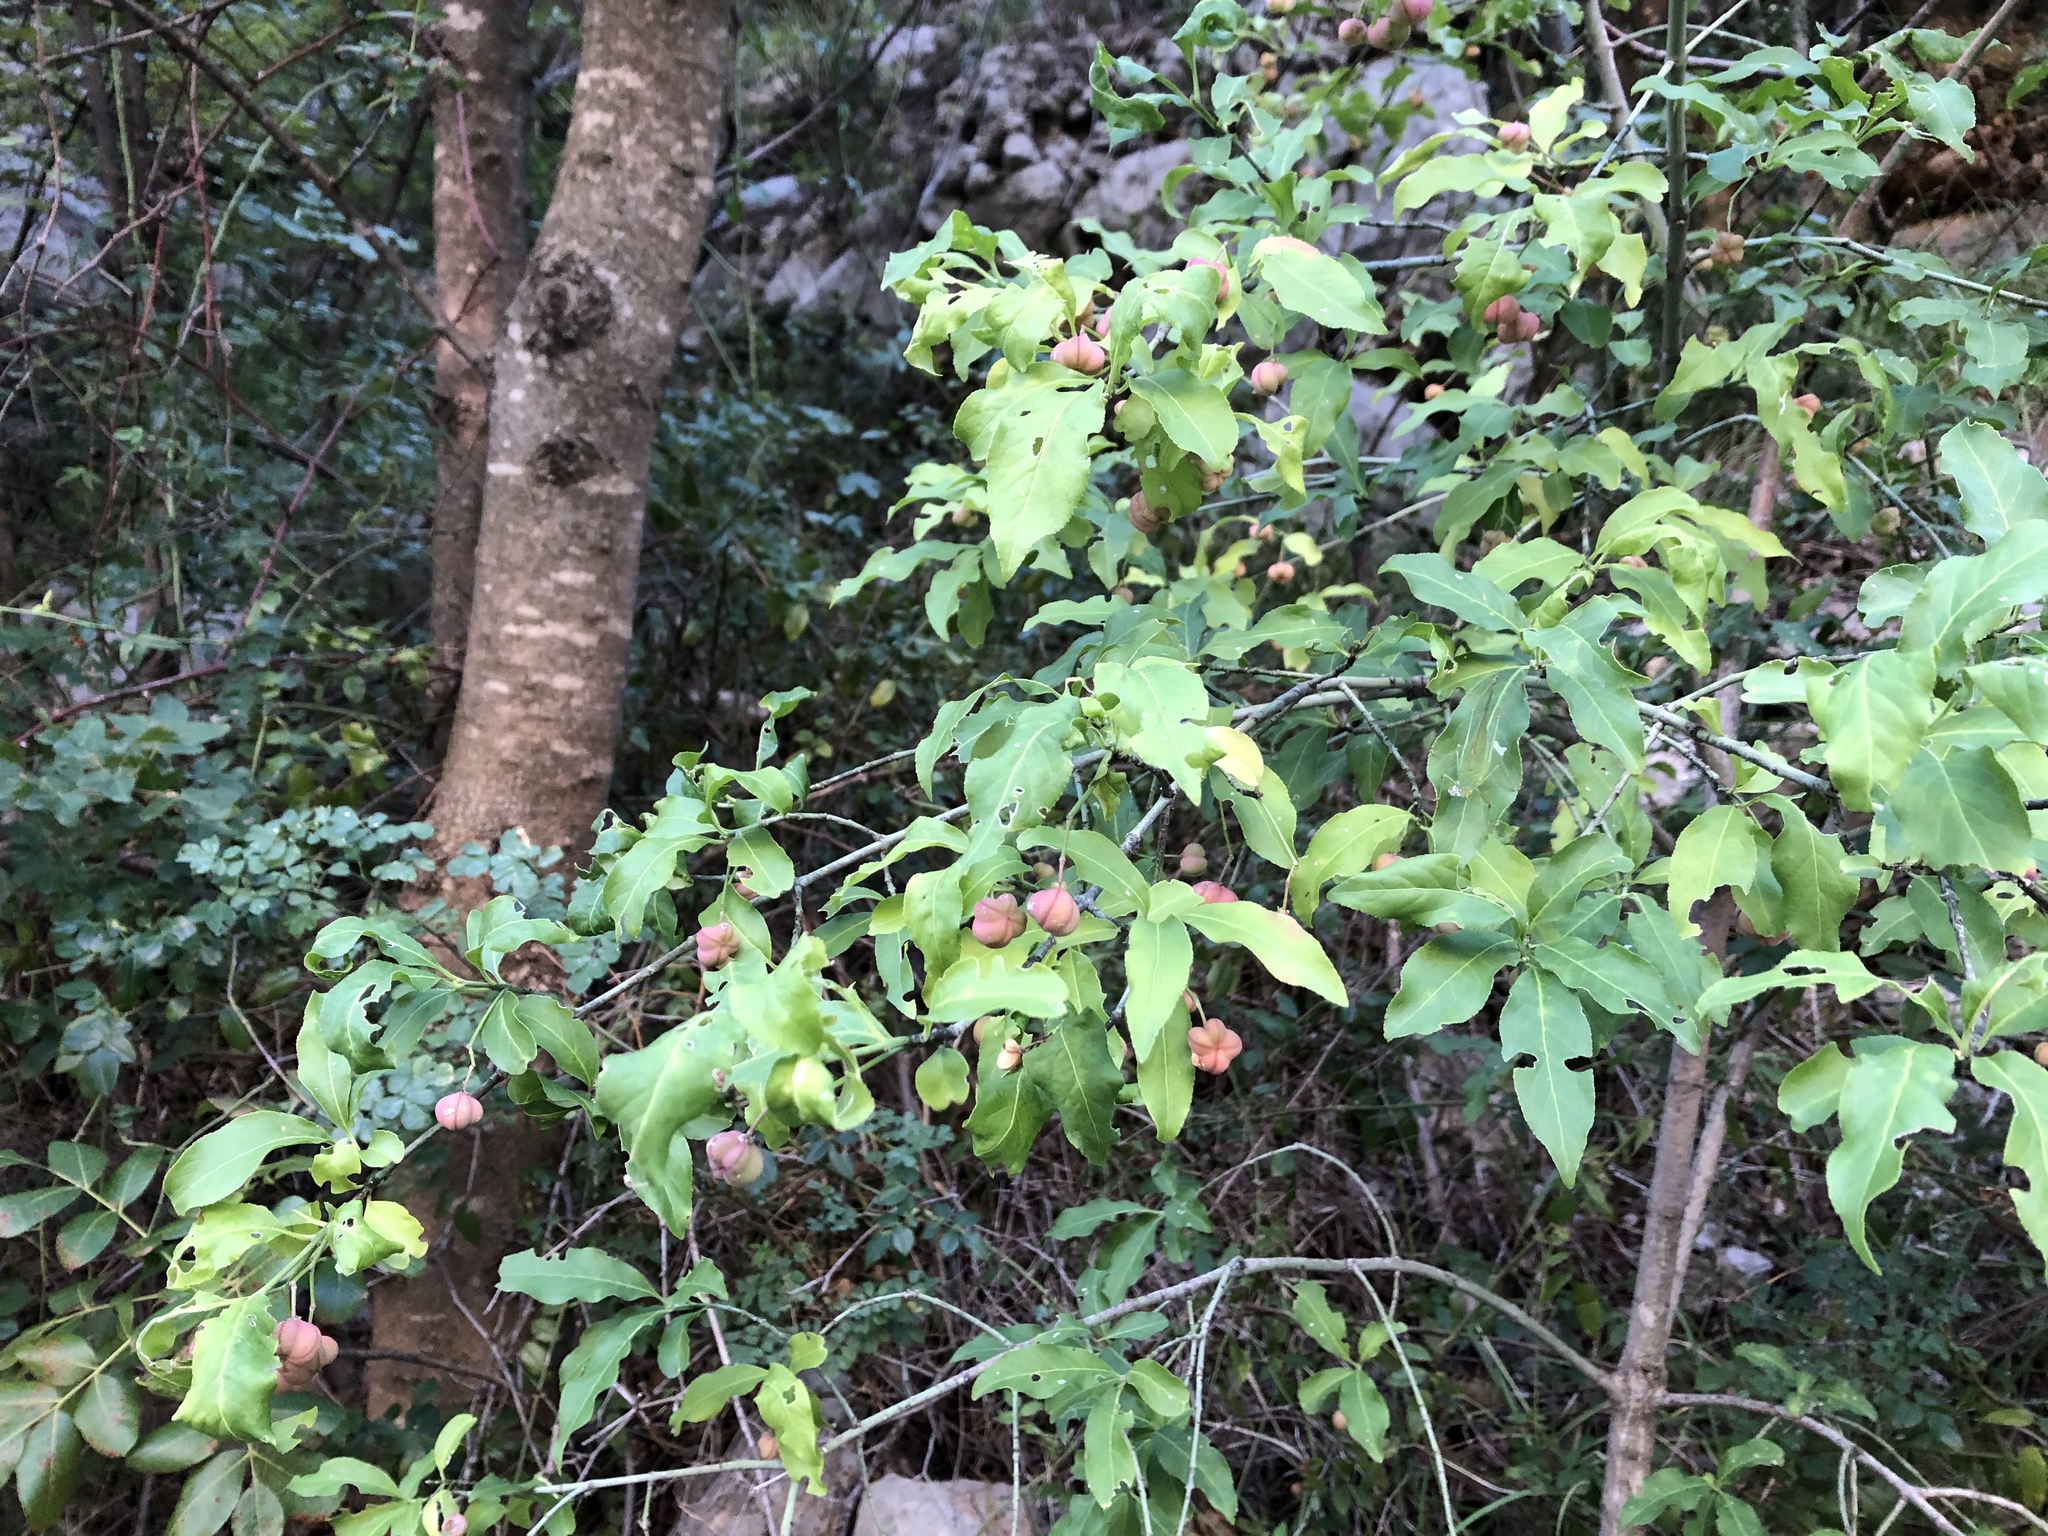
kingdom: Plantae
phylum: Tracheophyta
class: Magnoliopsida
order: Celastrales
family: Celastraceae
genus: Euonymus
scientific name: Euonymus europaeus
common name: Spindle
